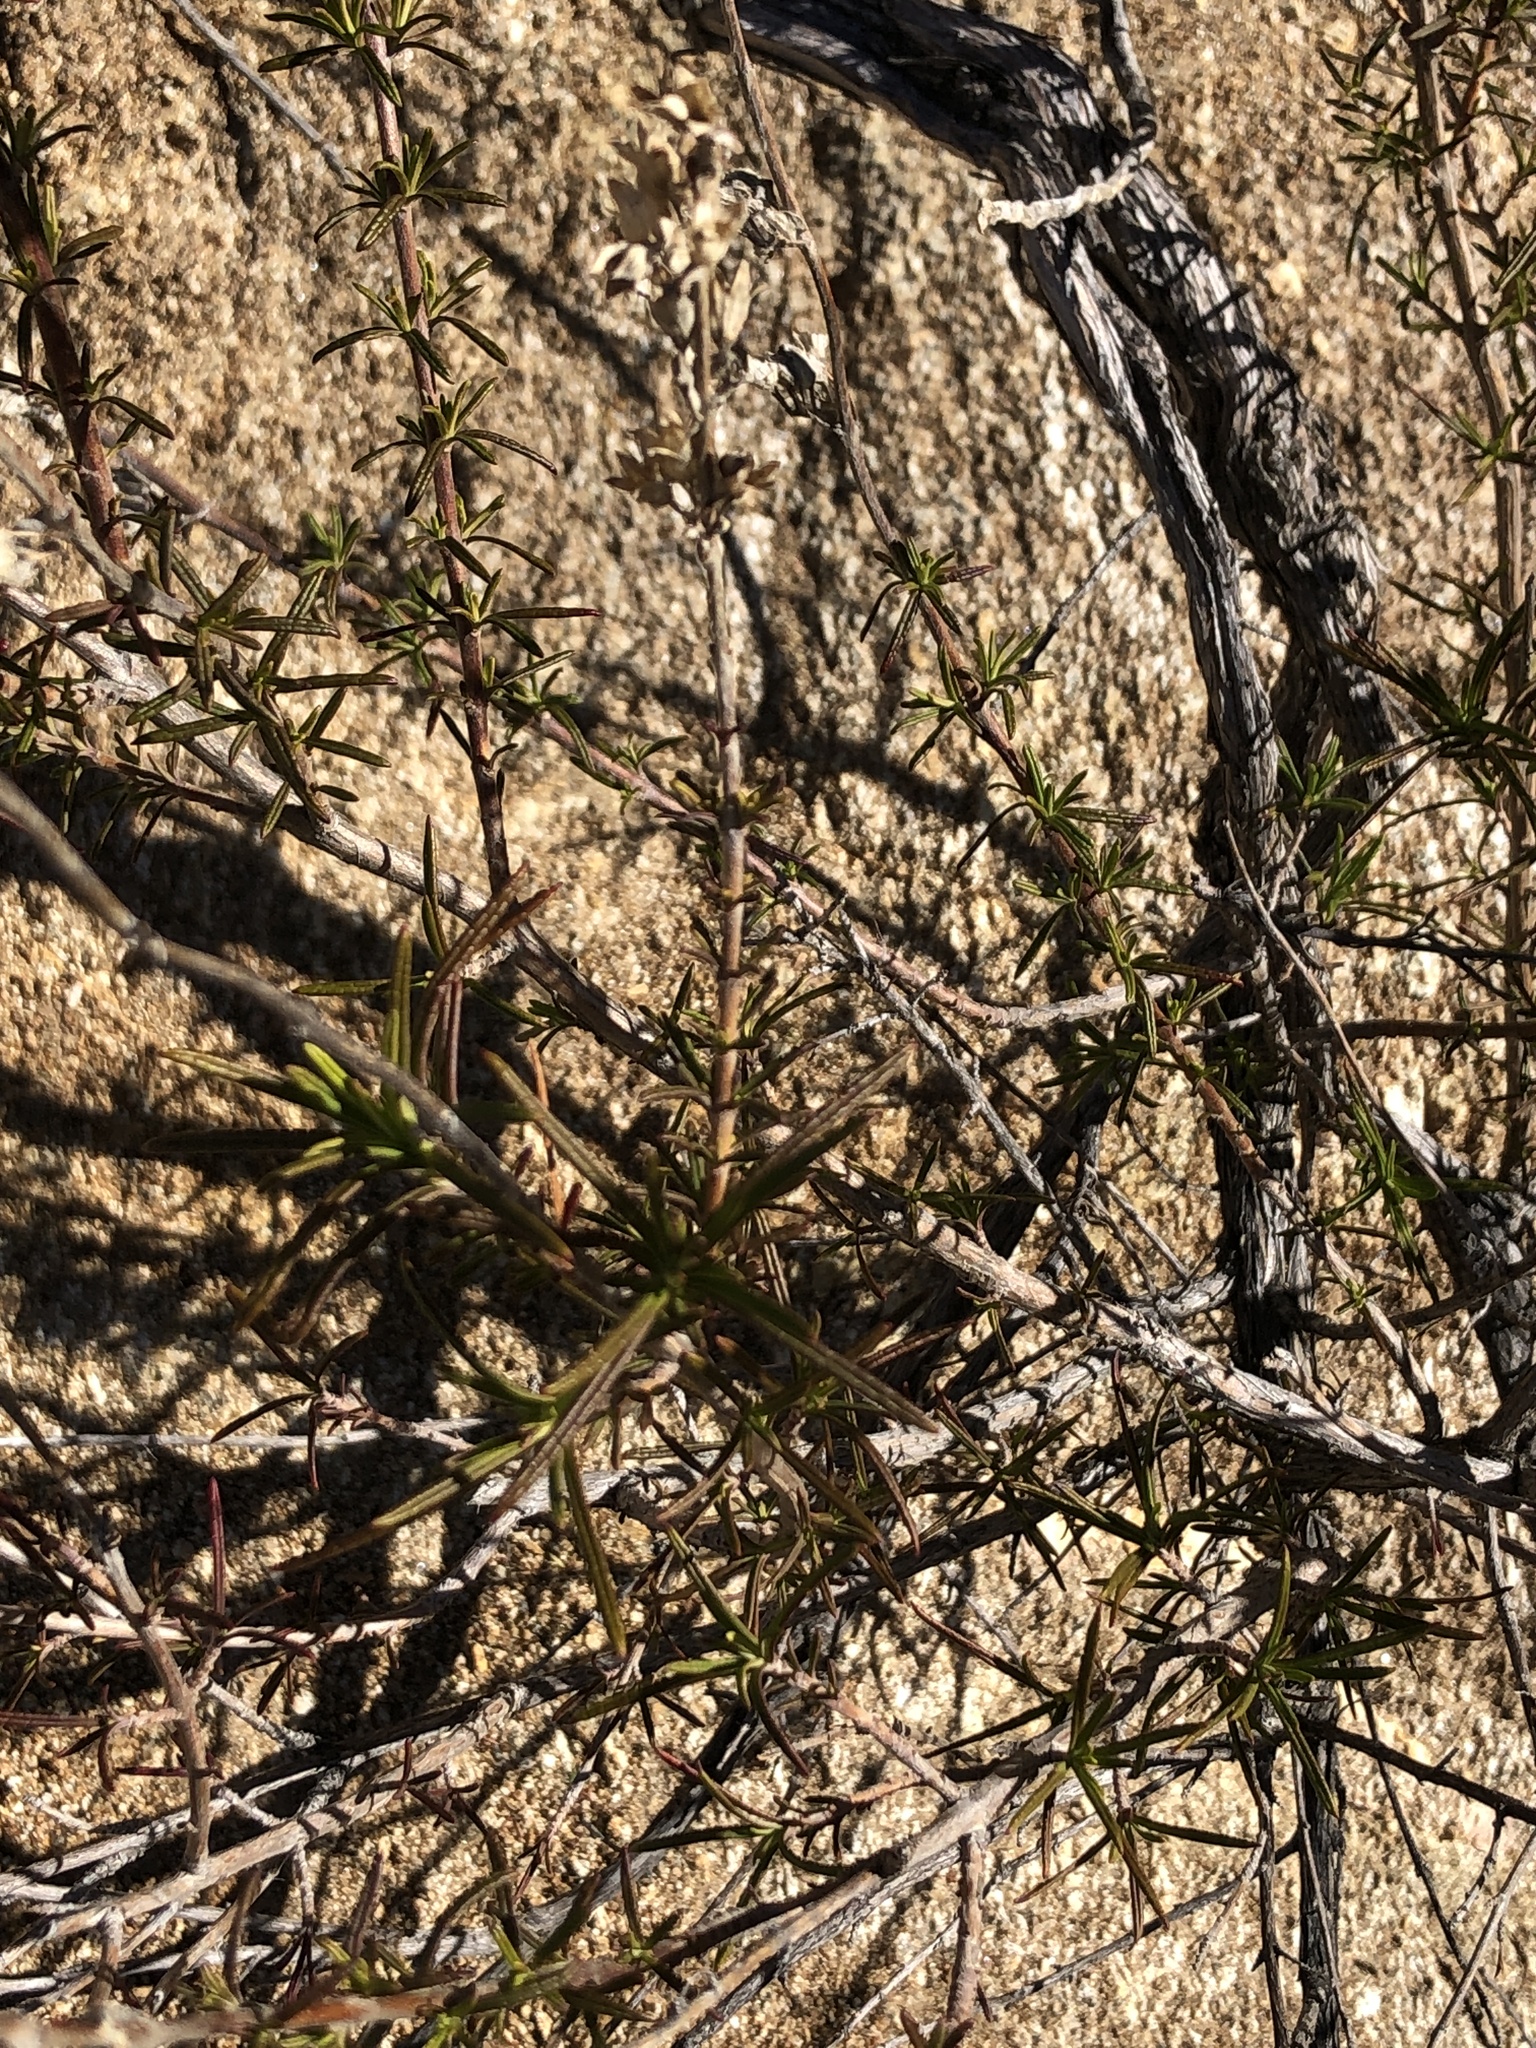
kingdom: Plantae
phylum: Tracheophyta
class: Magnoliopsida
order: Lamiales
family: Lamiaceae
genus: Trichostema
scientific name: Trichostema lanatum
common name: Woolly bluecurls
